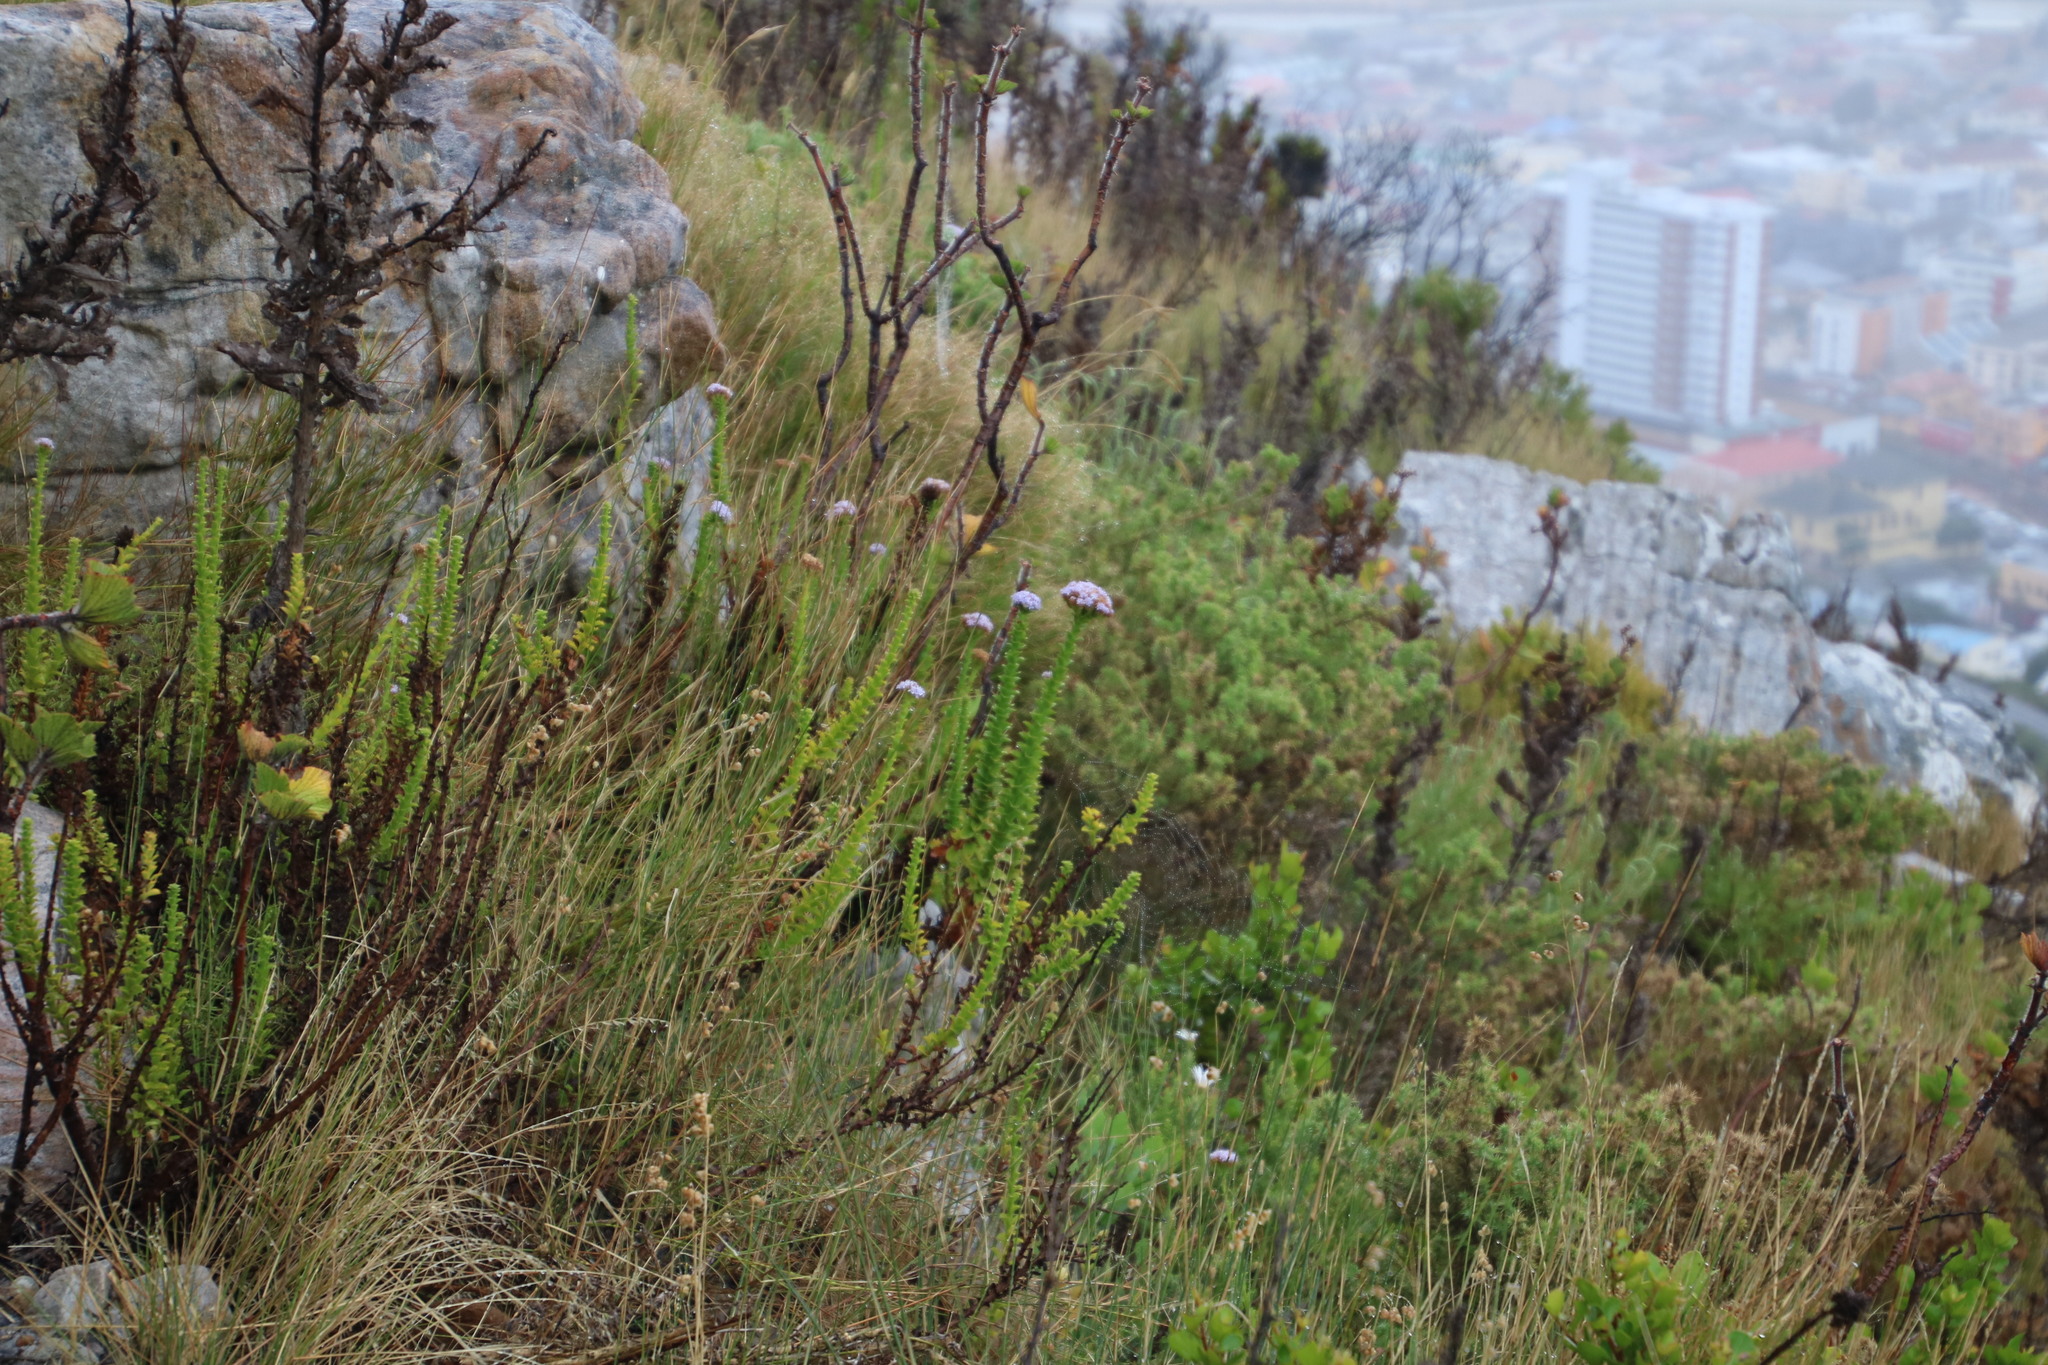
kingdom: Plantae
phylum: Tracheophyta
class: Magnoliopsida
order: Lamiales
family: Scrophulariaceae
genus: Pseudoselago
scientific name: Pseudoselago serrata
